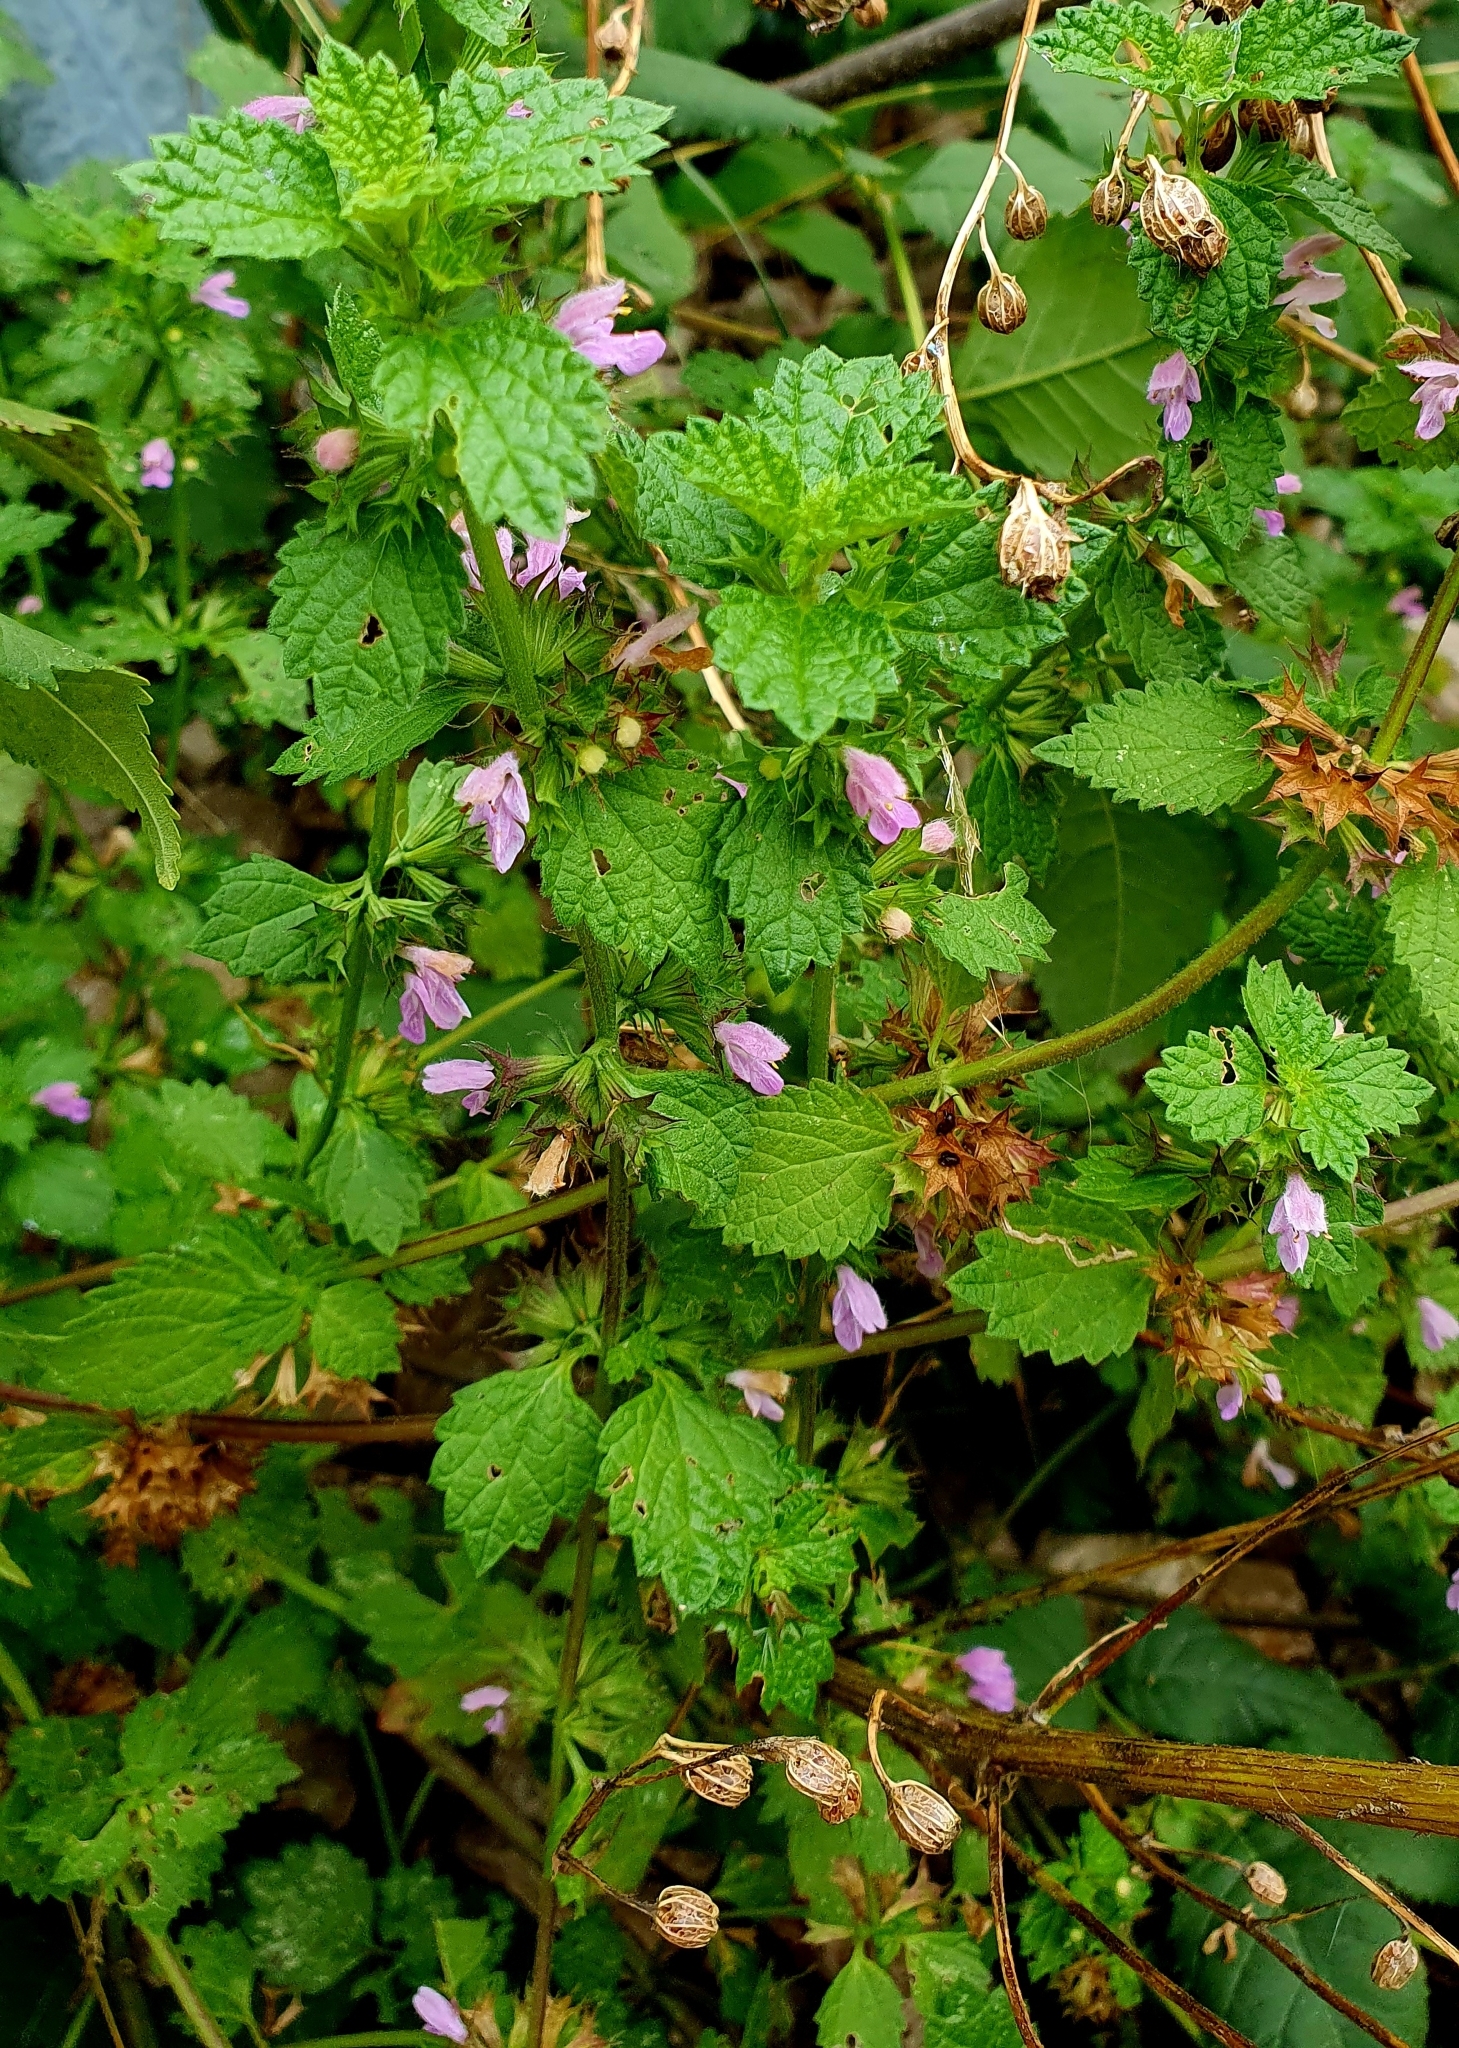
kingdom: Plantae
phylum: Tracheophyta
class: Magnoliopsida
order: Lamiales
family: Lamiaceae
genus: Ballota
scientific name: Ballota nigra
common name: Black horehound
